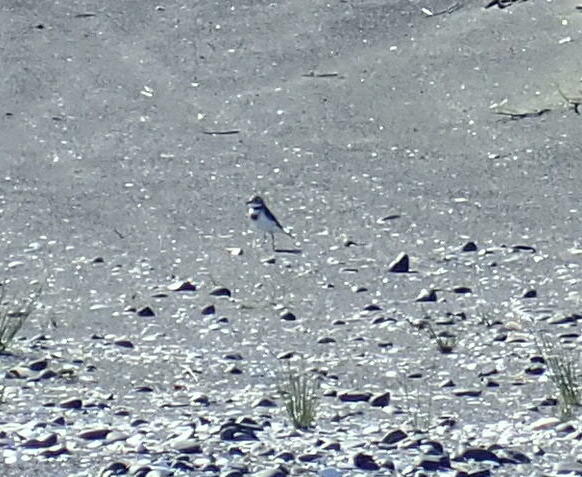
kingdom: Animalia
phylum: Chordata
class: Aves
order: Charadriiformes
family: Charadriidae
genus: Anarhynchus
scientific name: Anarhynchus
